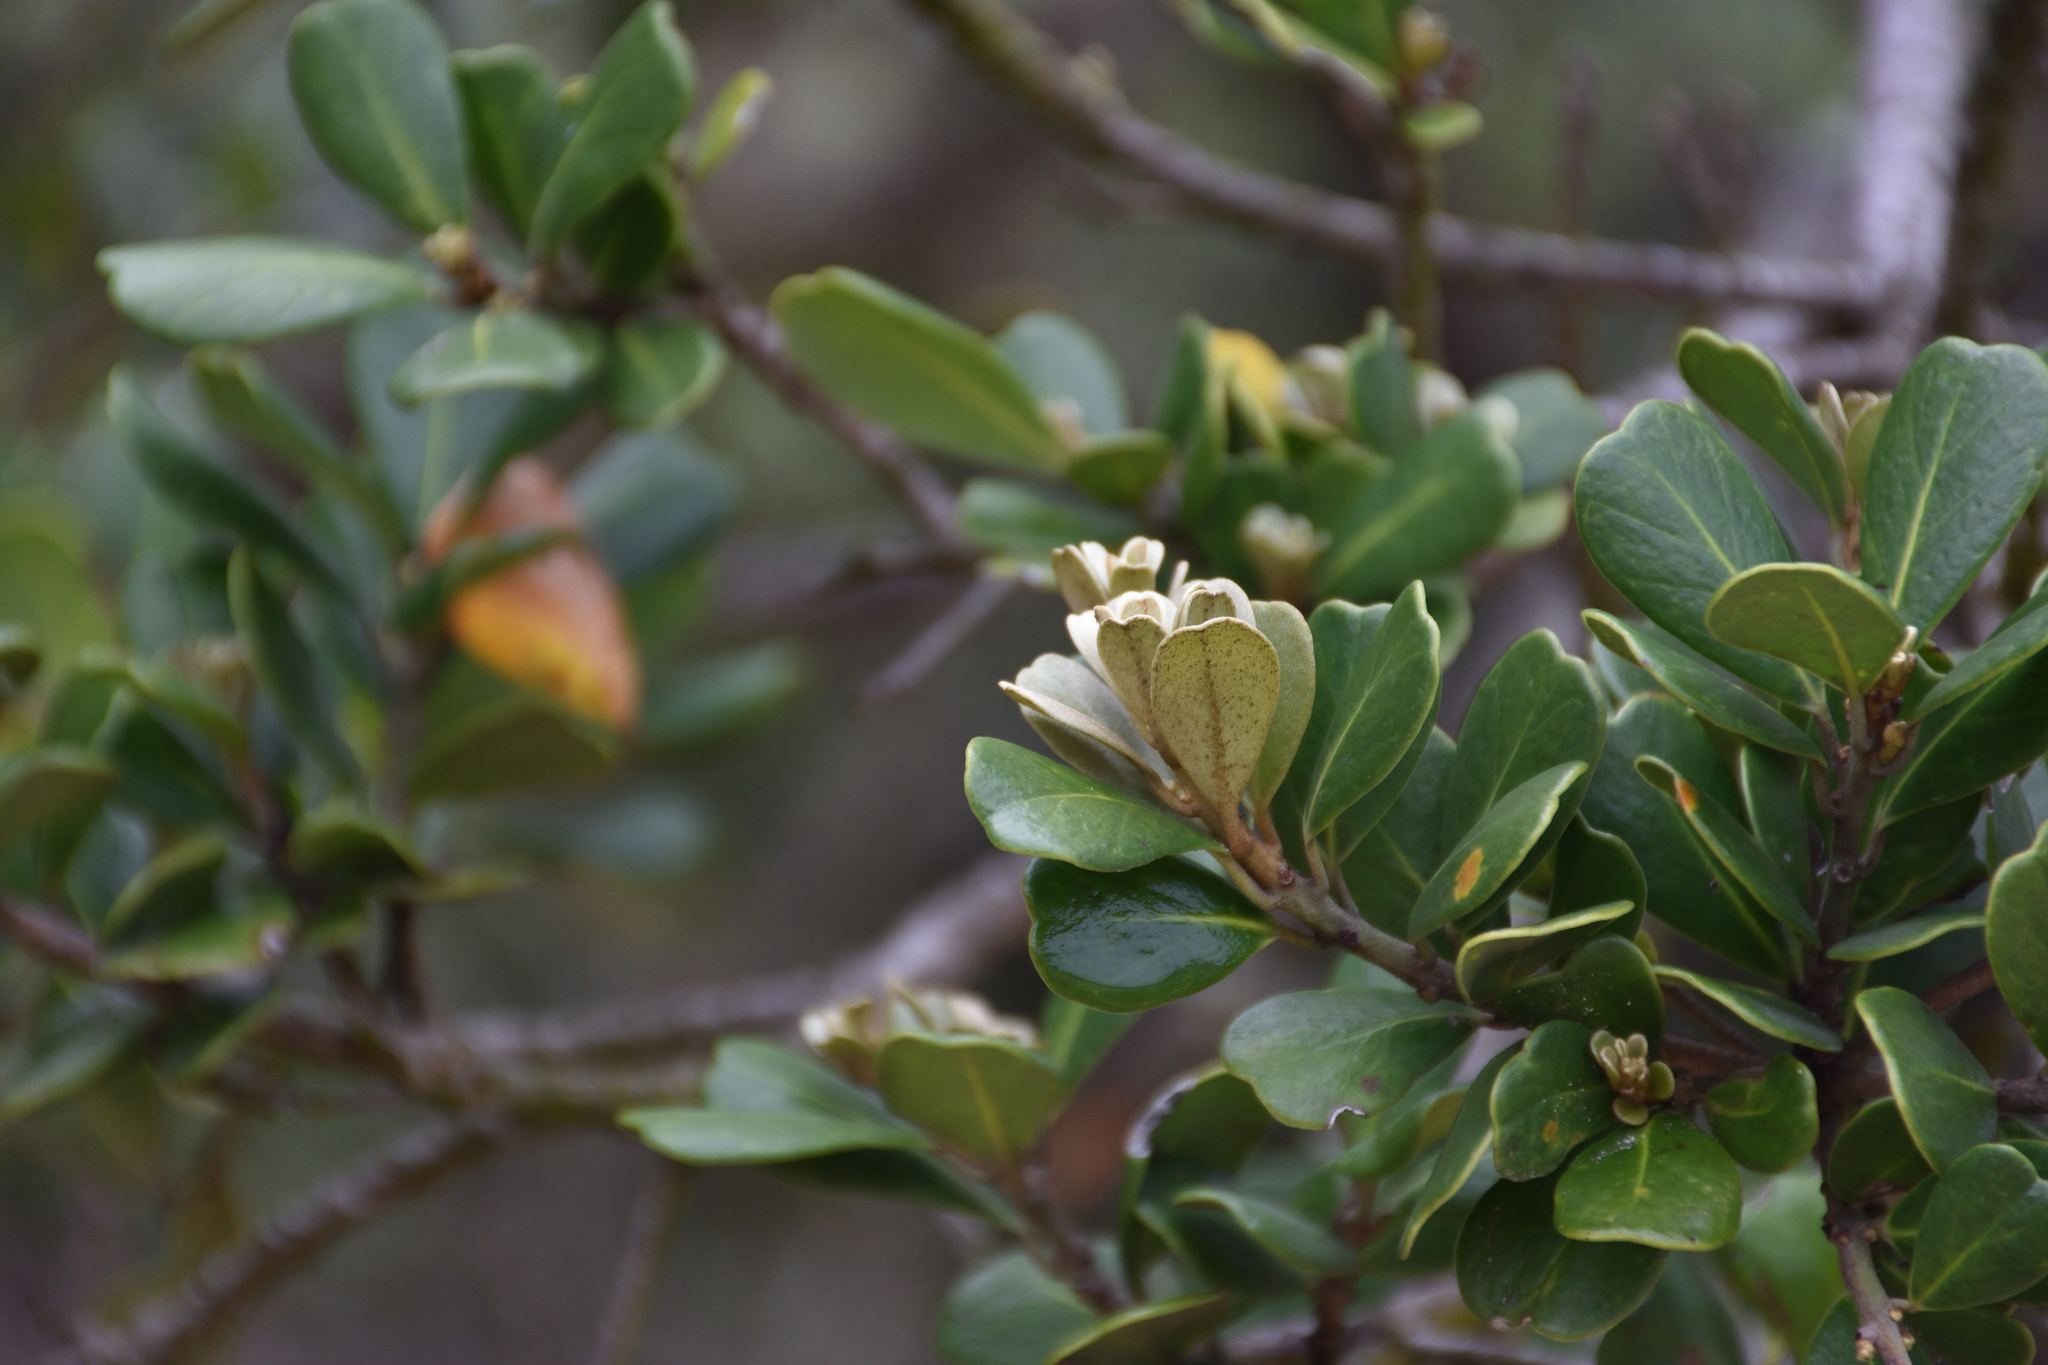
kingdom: Plantae
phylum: Tracheophyta
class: Magnoliopsida
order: Ericales
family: Sapotaceae
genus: Mimusops
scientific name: Mimusops caffra
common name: Coastal red milkwood
